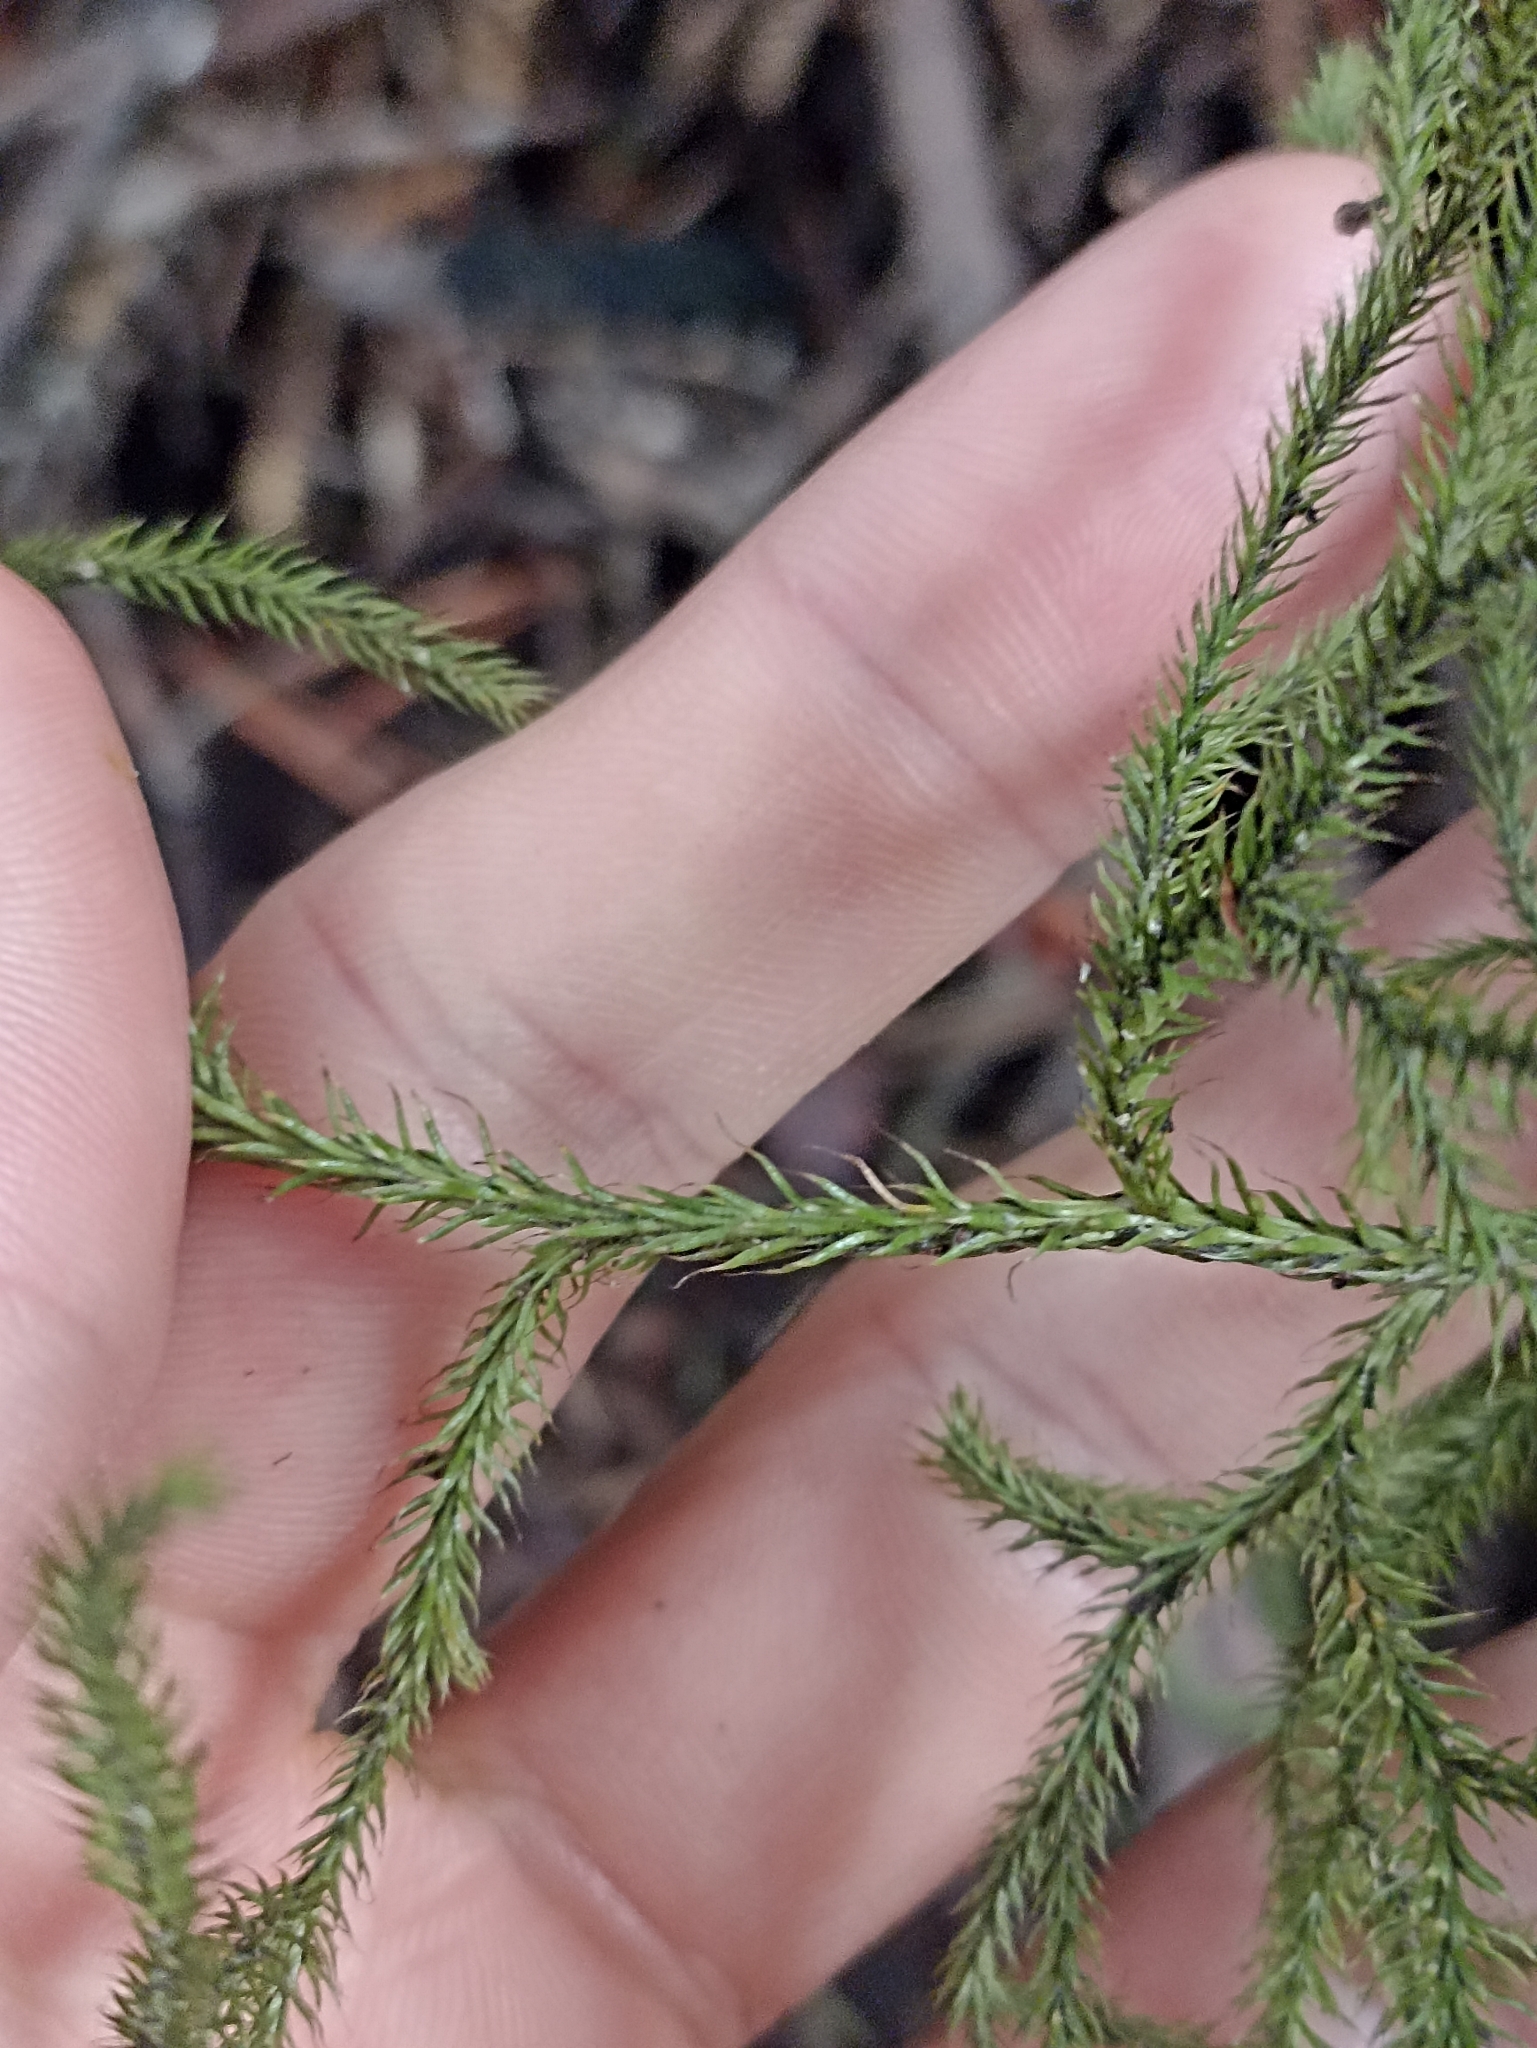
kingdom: Plantae
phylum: Tracheophyta
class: Lycopodiopsida
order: Lycopodiales
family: Lycopodiaceae
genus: Pseudolycopodium
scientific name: Pseudolycopodium densum
